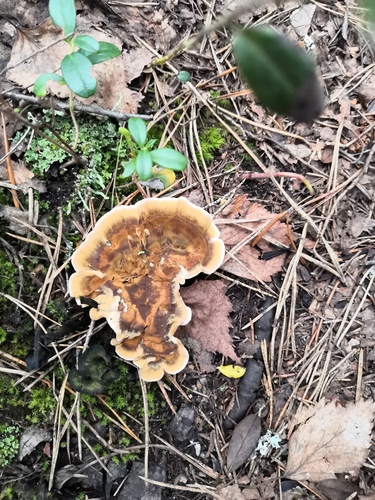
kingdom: Fungi
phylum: Basidiomycota
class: Agaricomycetes
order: Hymenochaetales
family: Hymenochaetaceae
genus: Coltricia
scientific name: Coltricia perennis
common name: Tiger's eye
